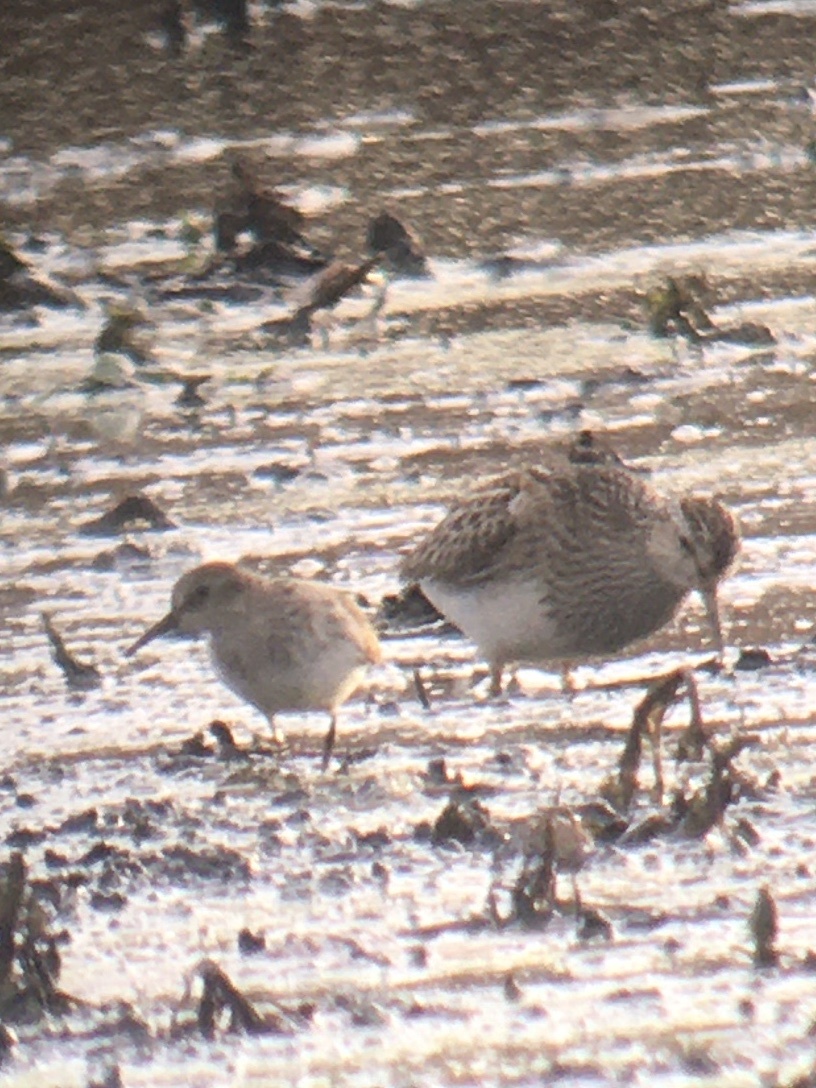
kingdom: Animalia
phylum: Chordata
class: Aves
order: Charadriiformes
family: Scolopacidae
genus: Calidris
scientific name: Calidris melanotos
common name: Pectoral sandpiper
